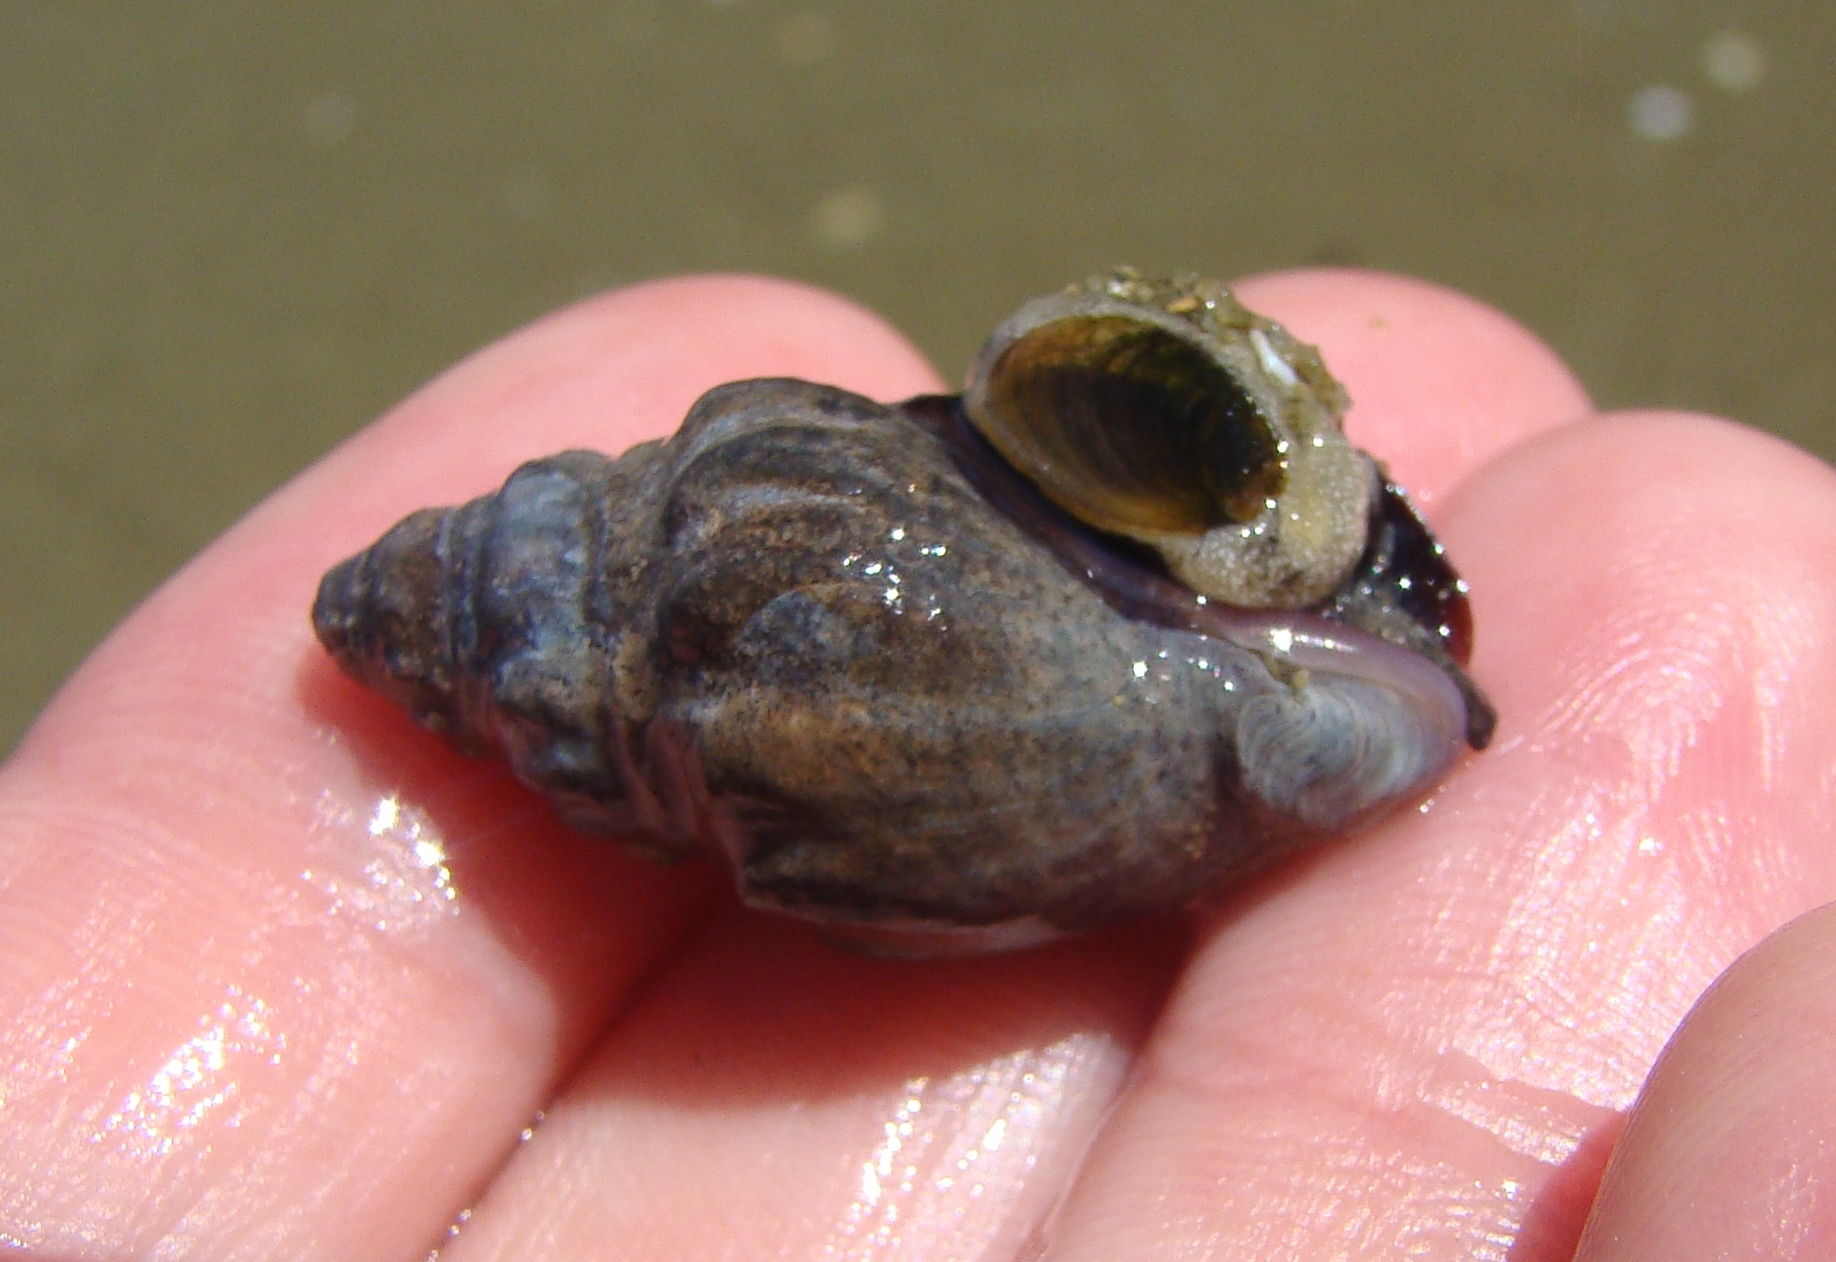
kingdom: Animalia
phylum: Mollusca
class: Gastropoda
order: Neogastropoda
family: Cominellidae
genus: Cominella
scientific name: Cominella glandiformis
